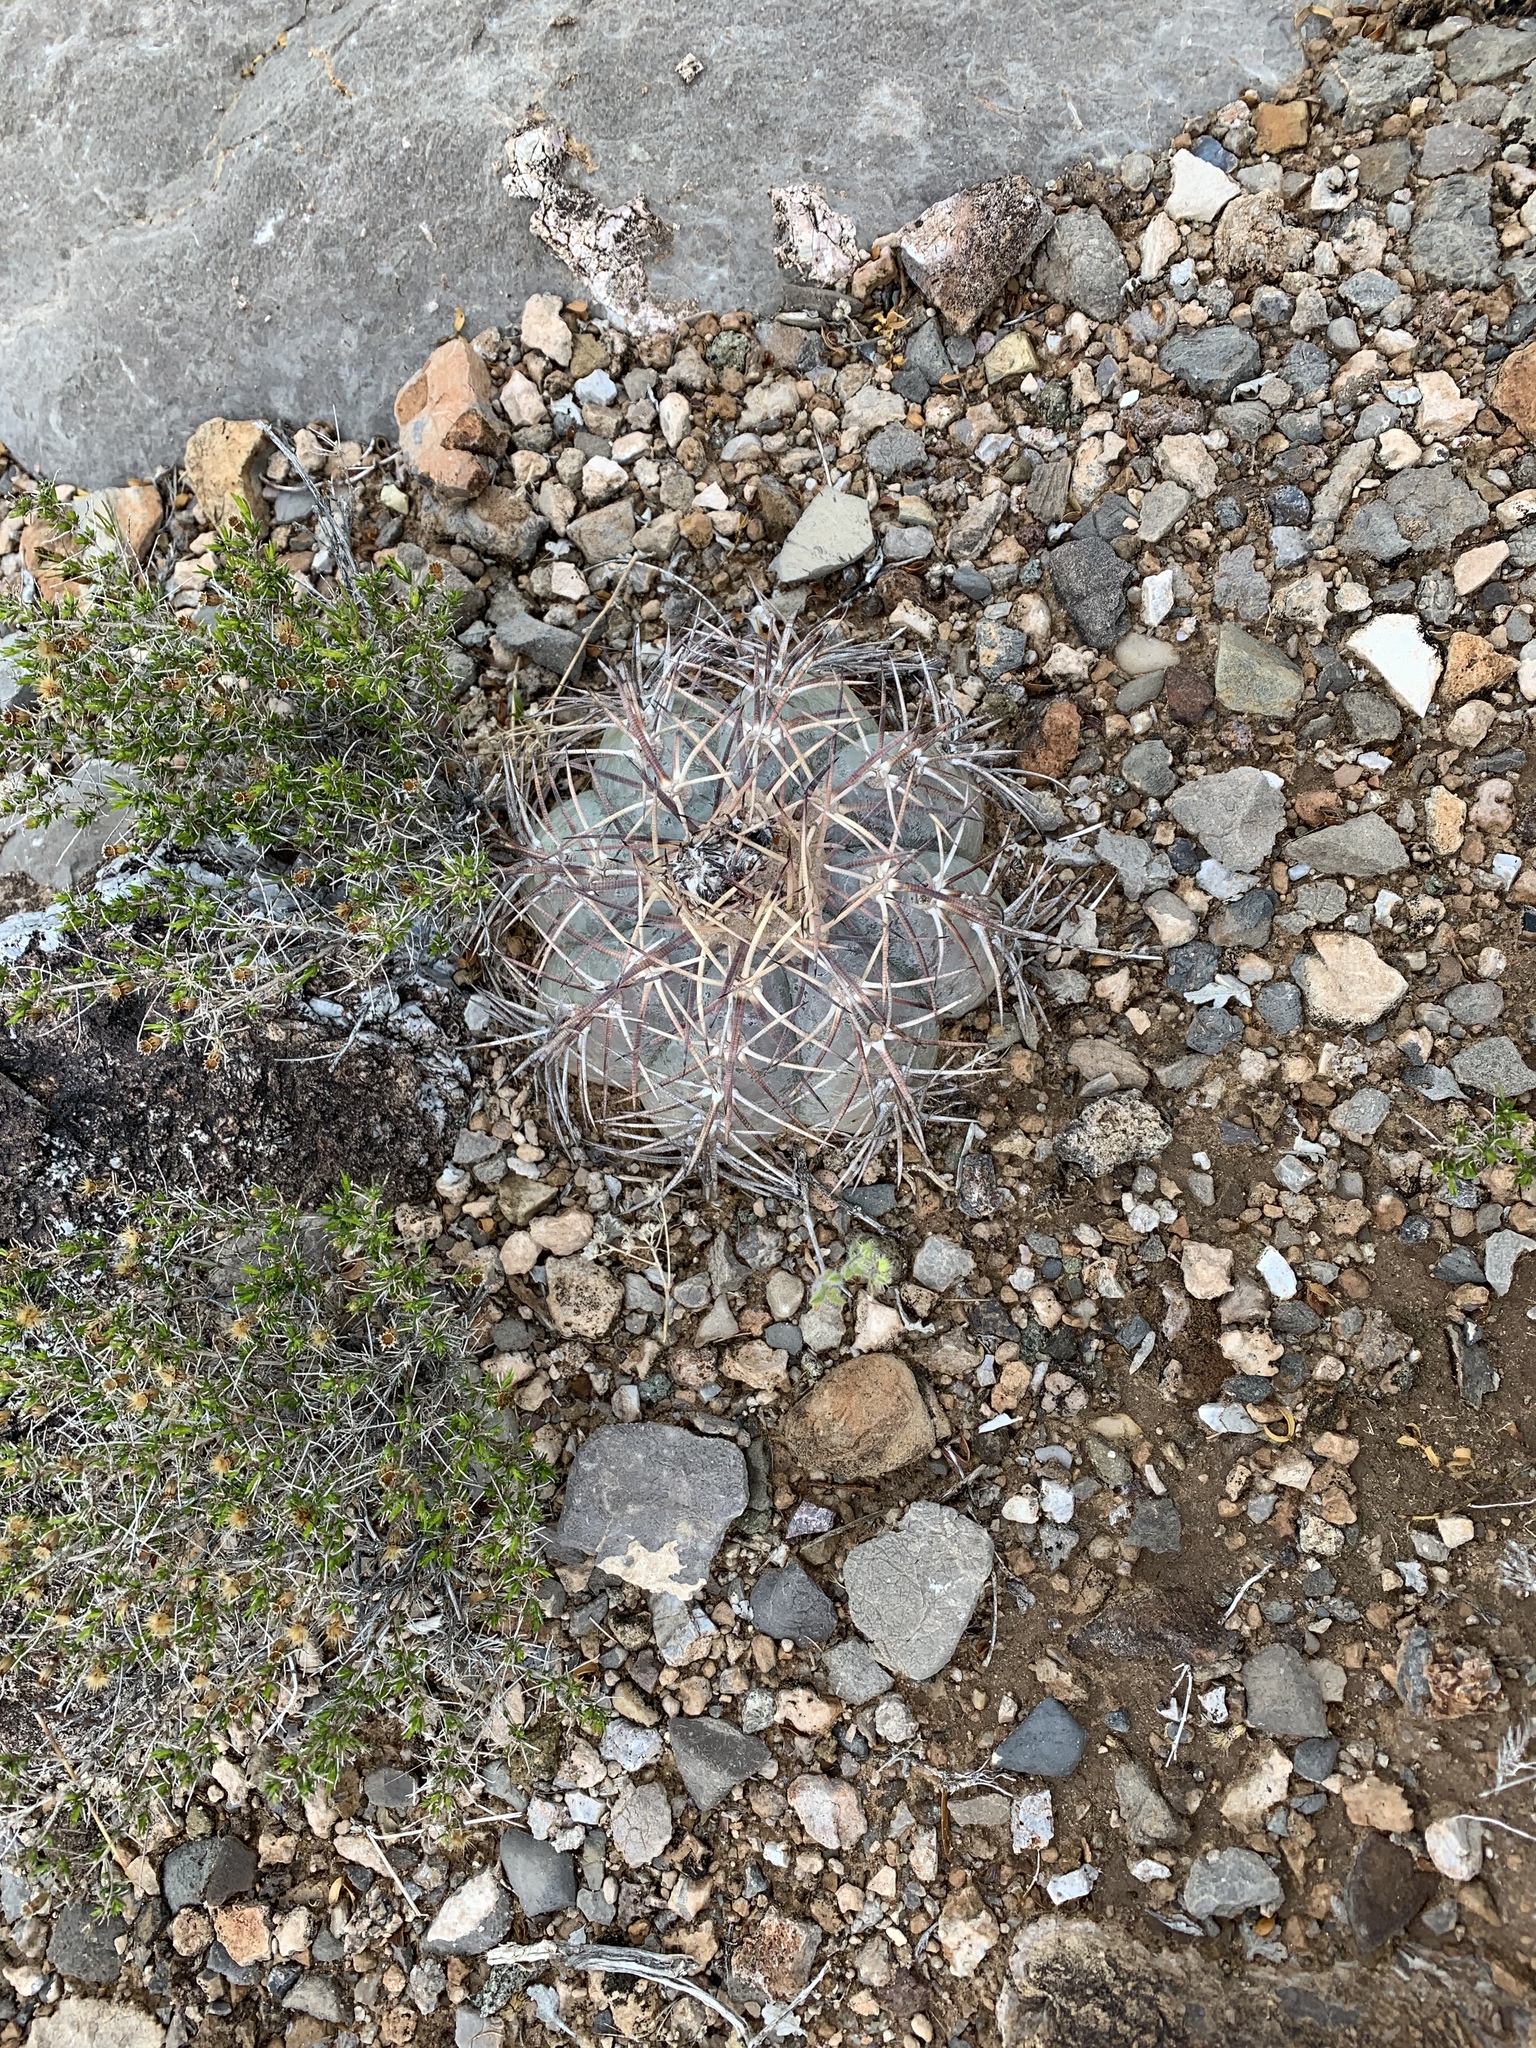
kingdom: Plantae
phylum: Tracheophyta
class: Magnoliopsida
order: Caryophyllales
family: Cactaceae
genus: Echinocactus
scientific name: Echinocactus horizonthalonius
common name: Devilshead
